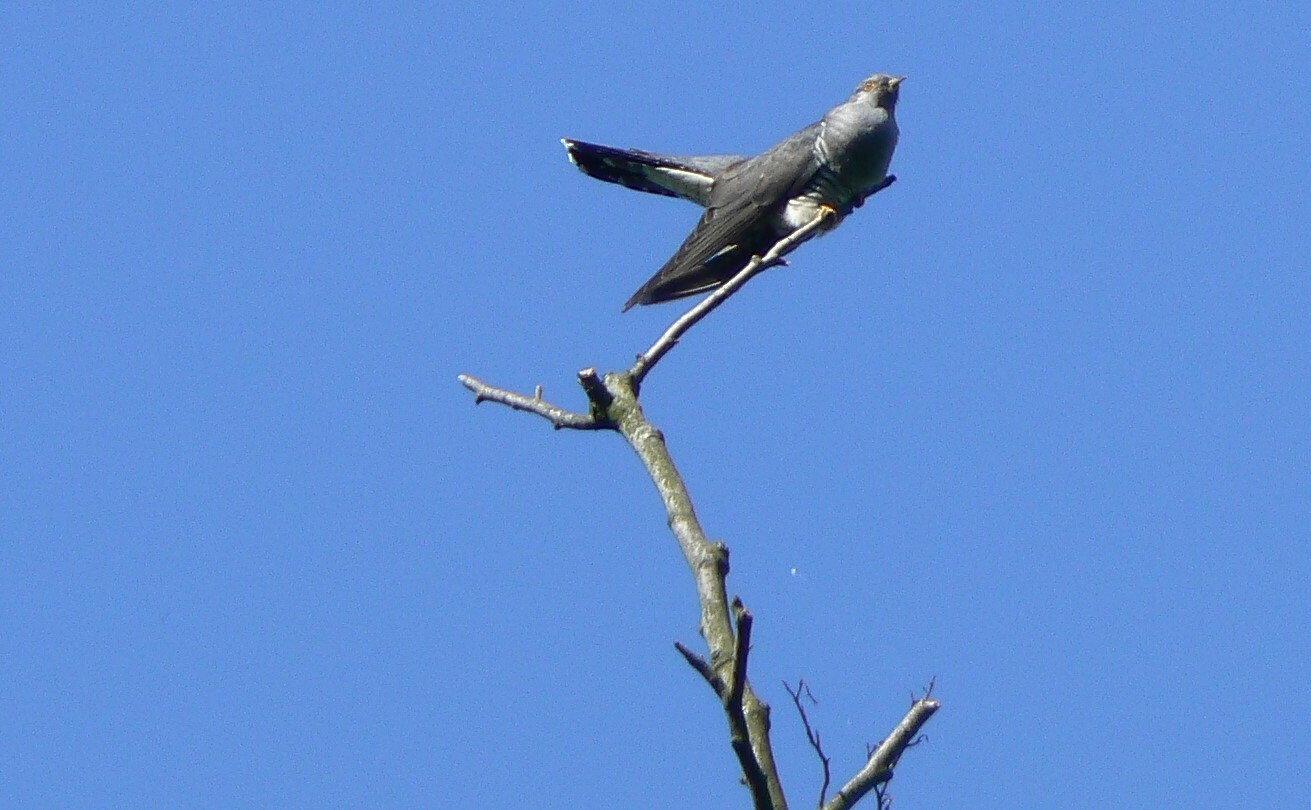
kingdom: Animalia
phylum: Chordata
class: Aves
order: Cuculiformes
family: Cuculidae
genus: Cuculus
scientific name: Cuculus canorus
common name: Common cuckoo
